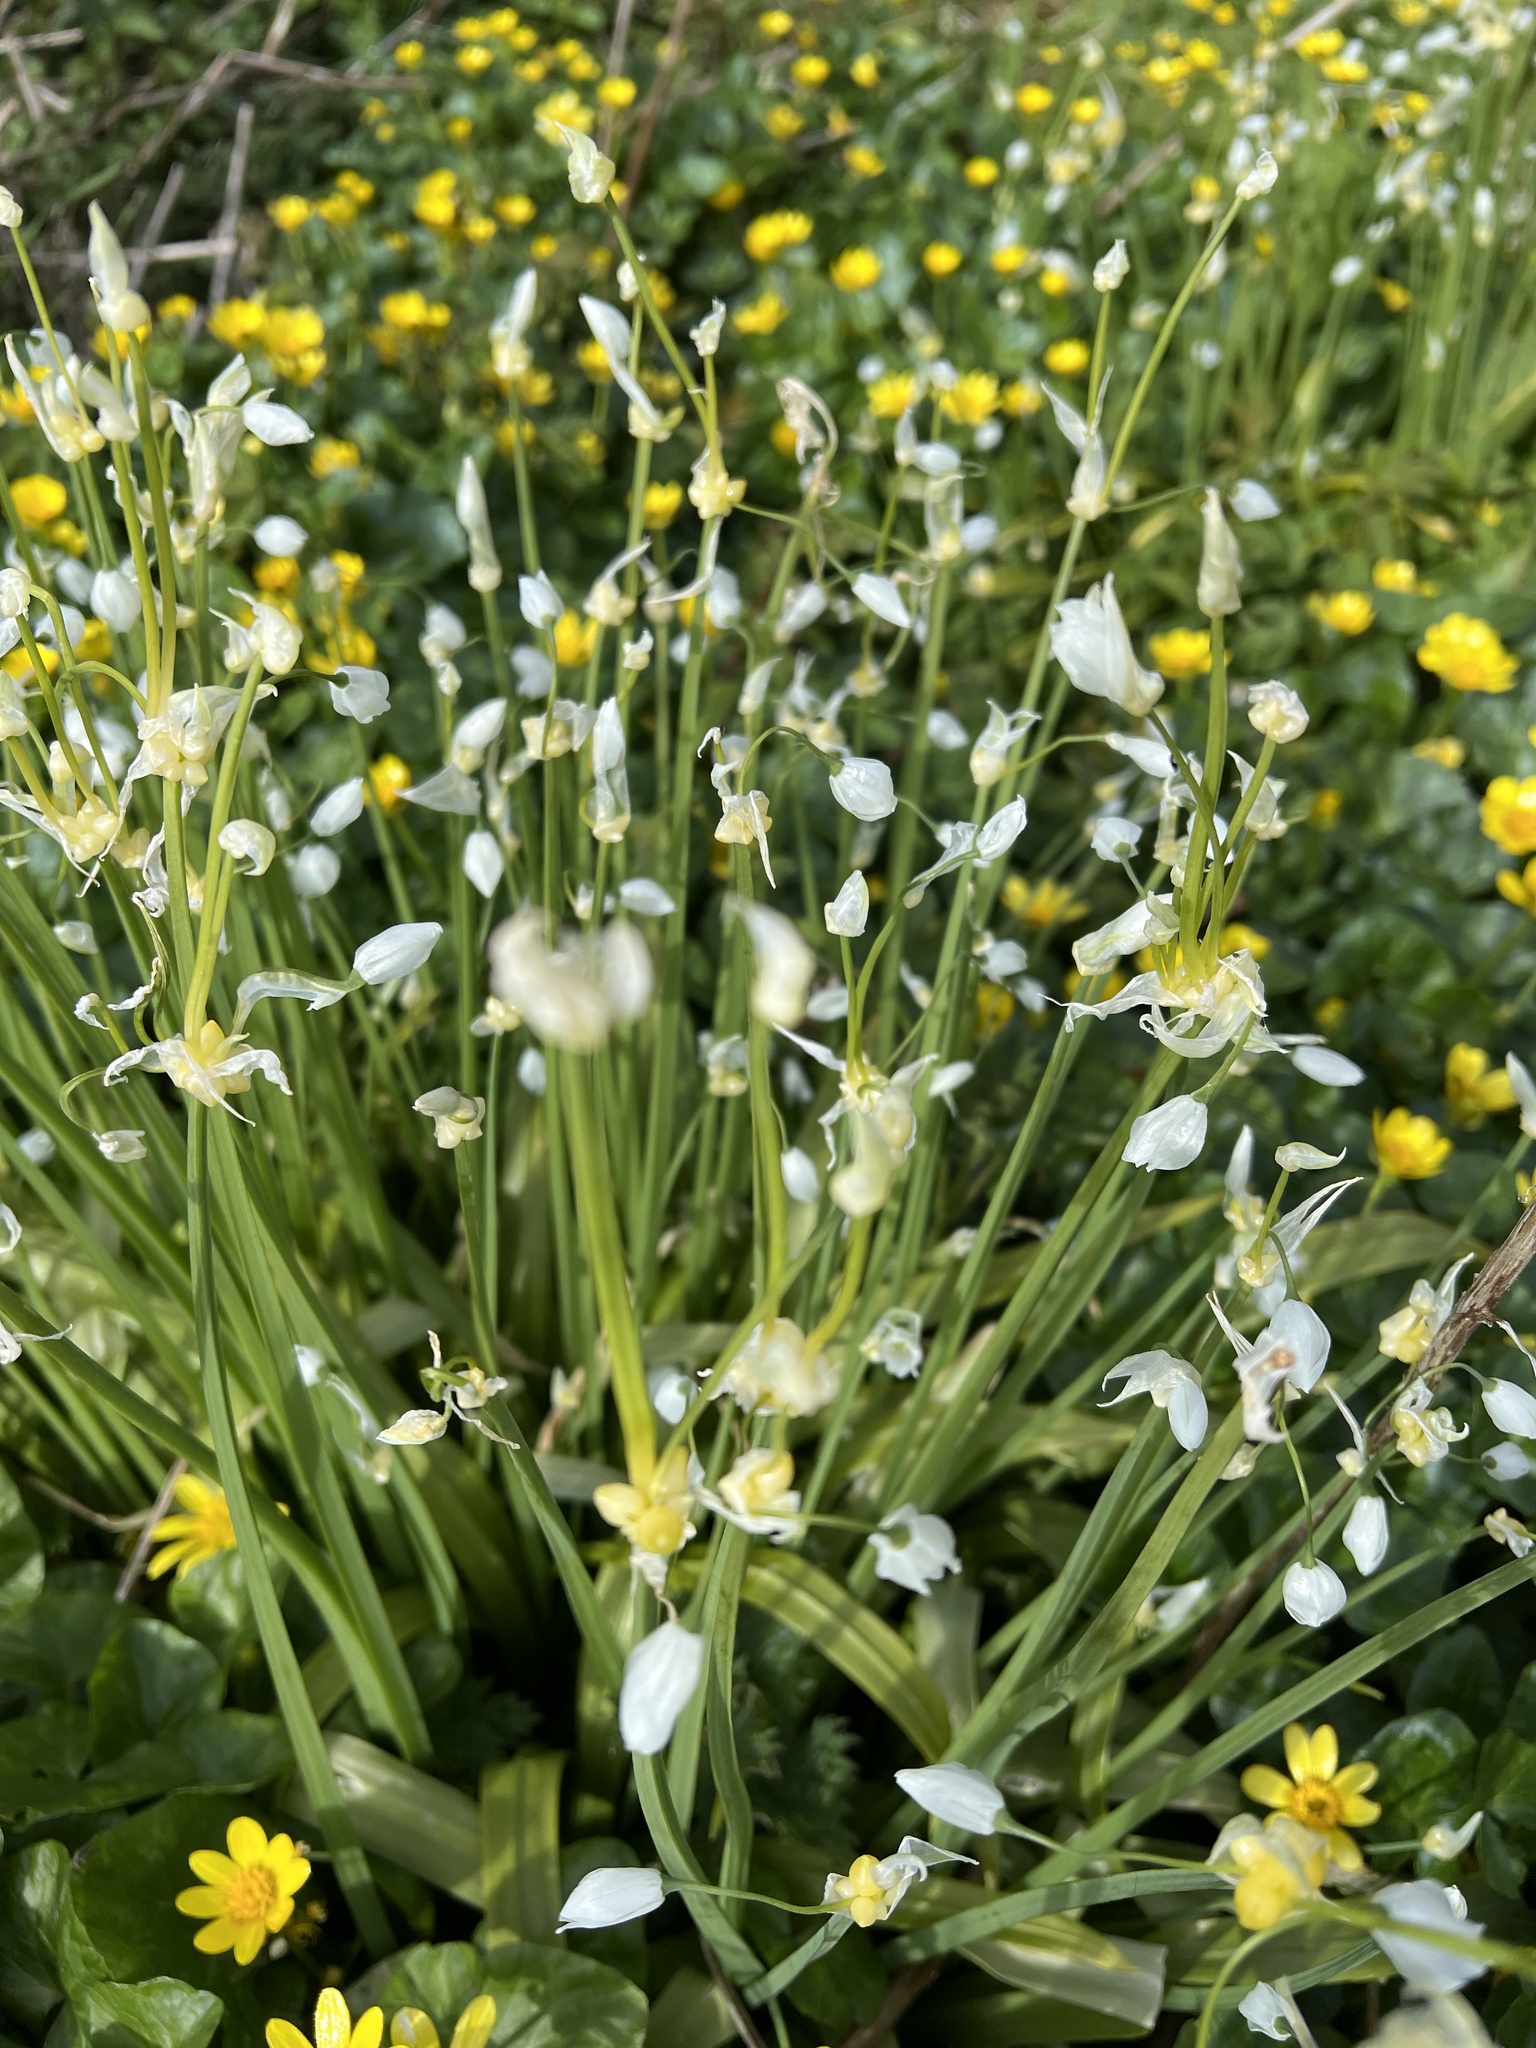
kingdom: Plantae
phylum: Tracheophyta
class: Liliopsida
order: Asparagales
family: Amaryllidaceae
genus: Allium
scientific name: Allium paradoxum
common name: Few-flowered garlic
